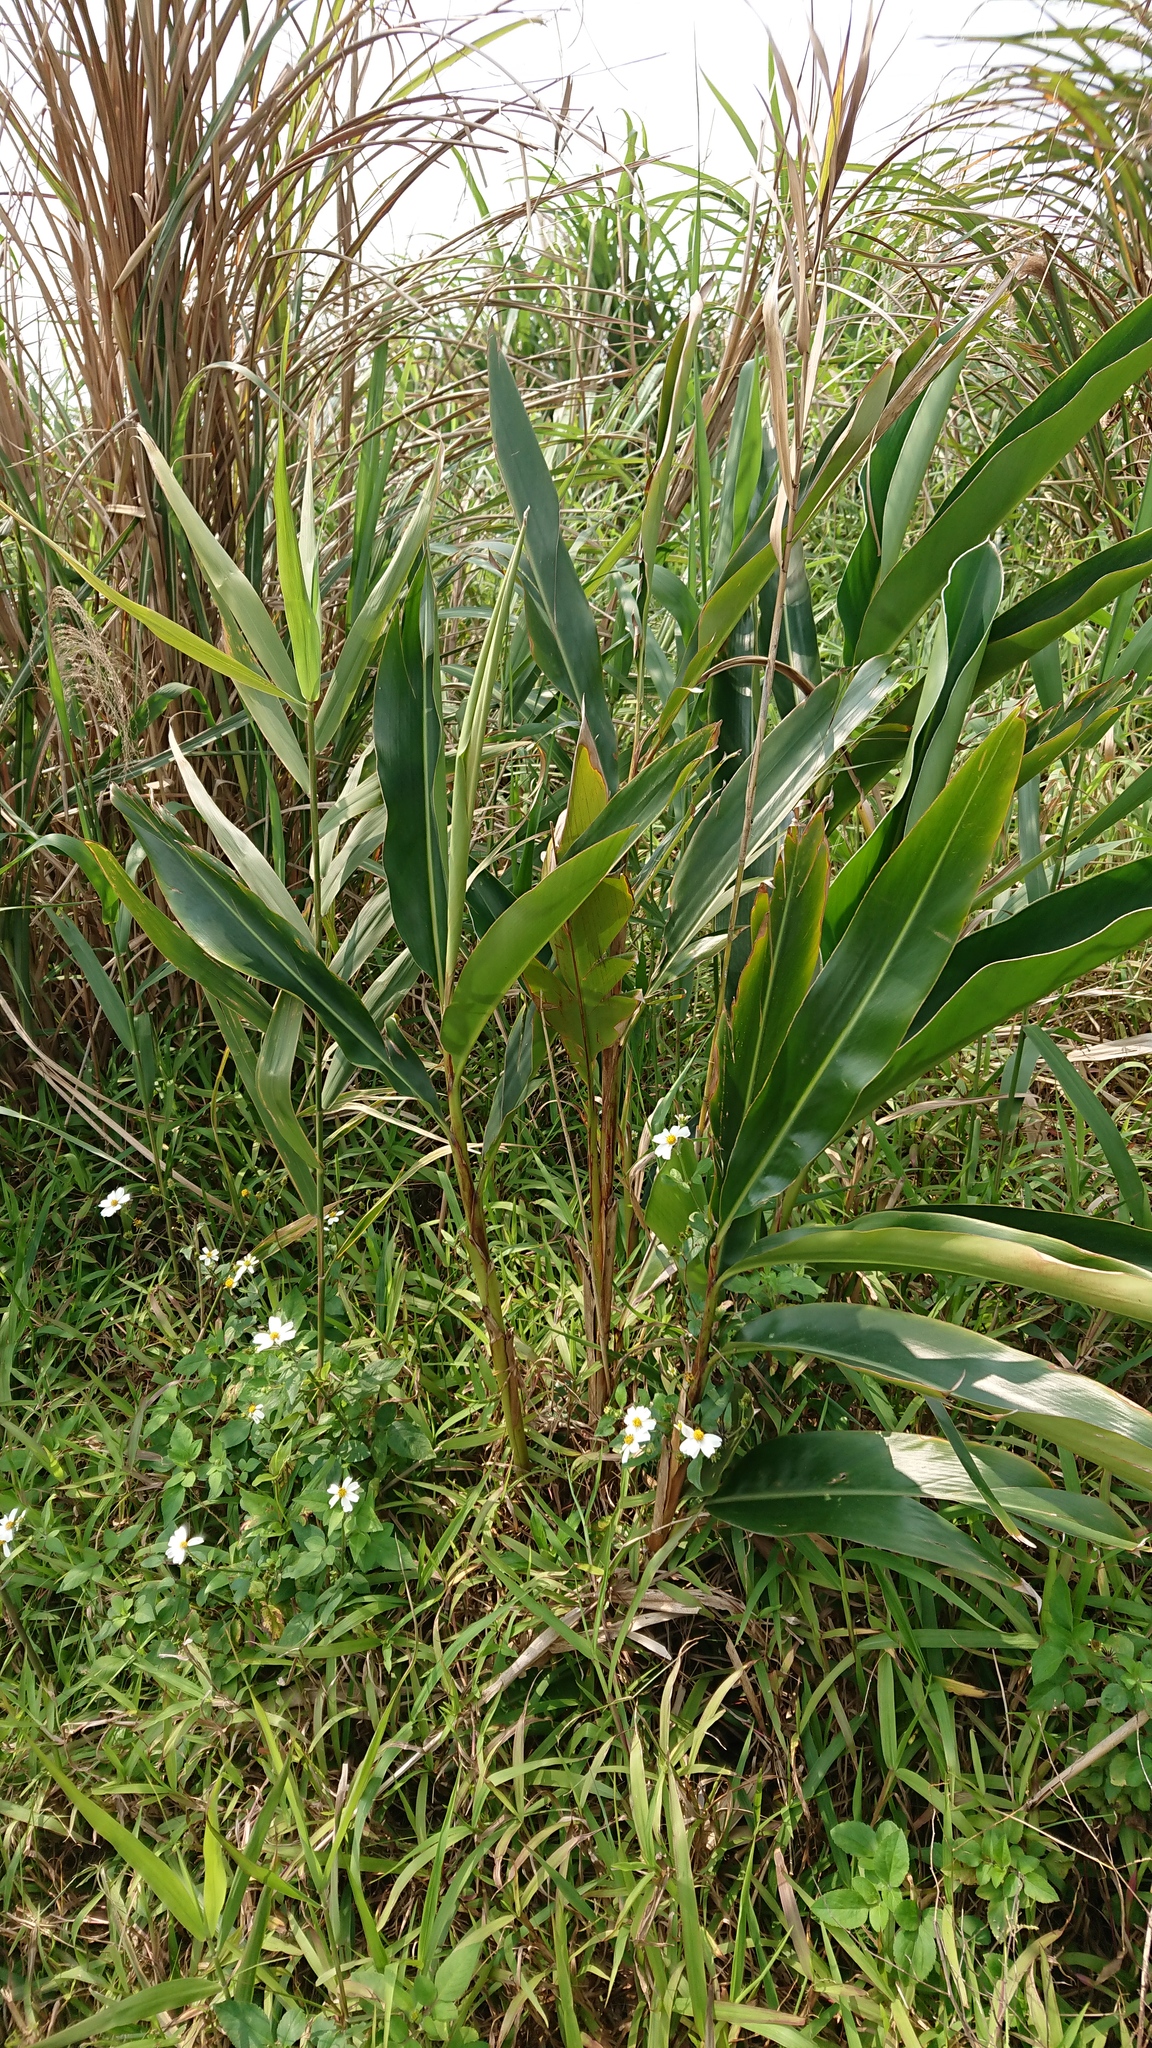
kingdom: Plantae
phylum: Tracheophyta
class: Liliopsida
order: Zingiberales
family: Zingiberaceae
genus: Alpinia
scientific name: Alpinia zerumbet
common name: Shellplant
